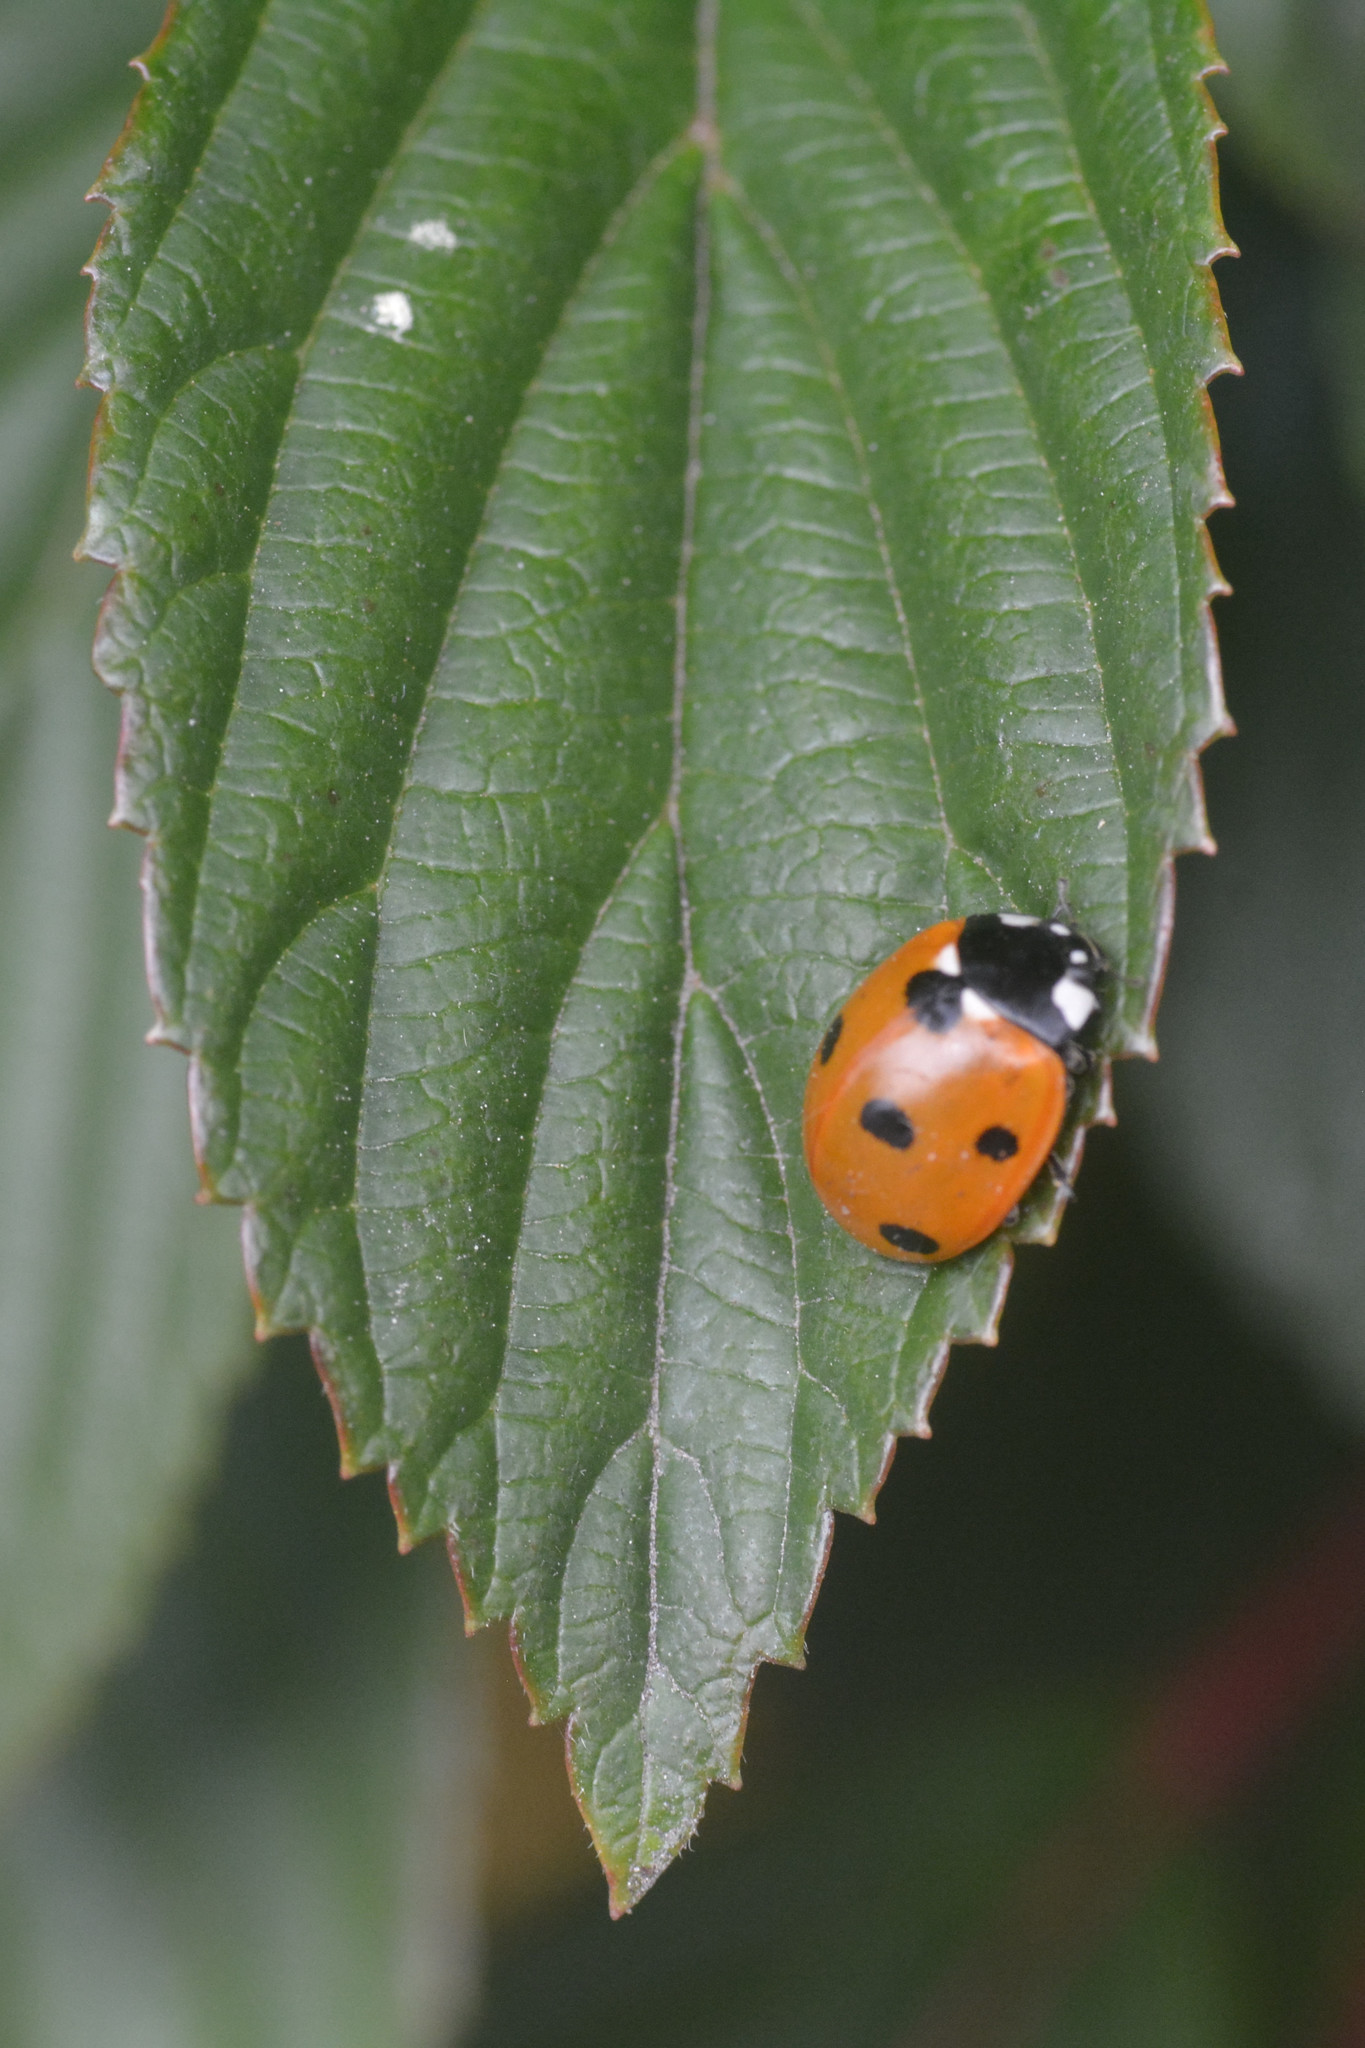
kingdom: Animalia
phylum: Arthropoda
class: Insecta
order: Coleoptera
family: Coccinellidae
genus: Coccinella
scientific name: Coccinella septempunctata
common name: Sevenspotted lady beetle
